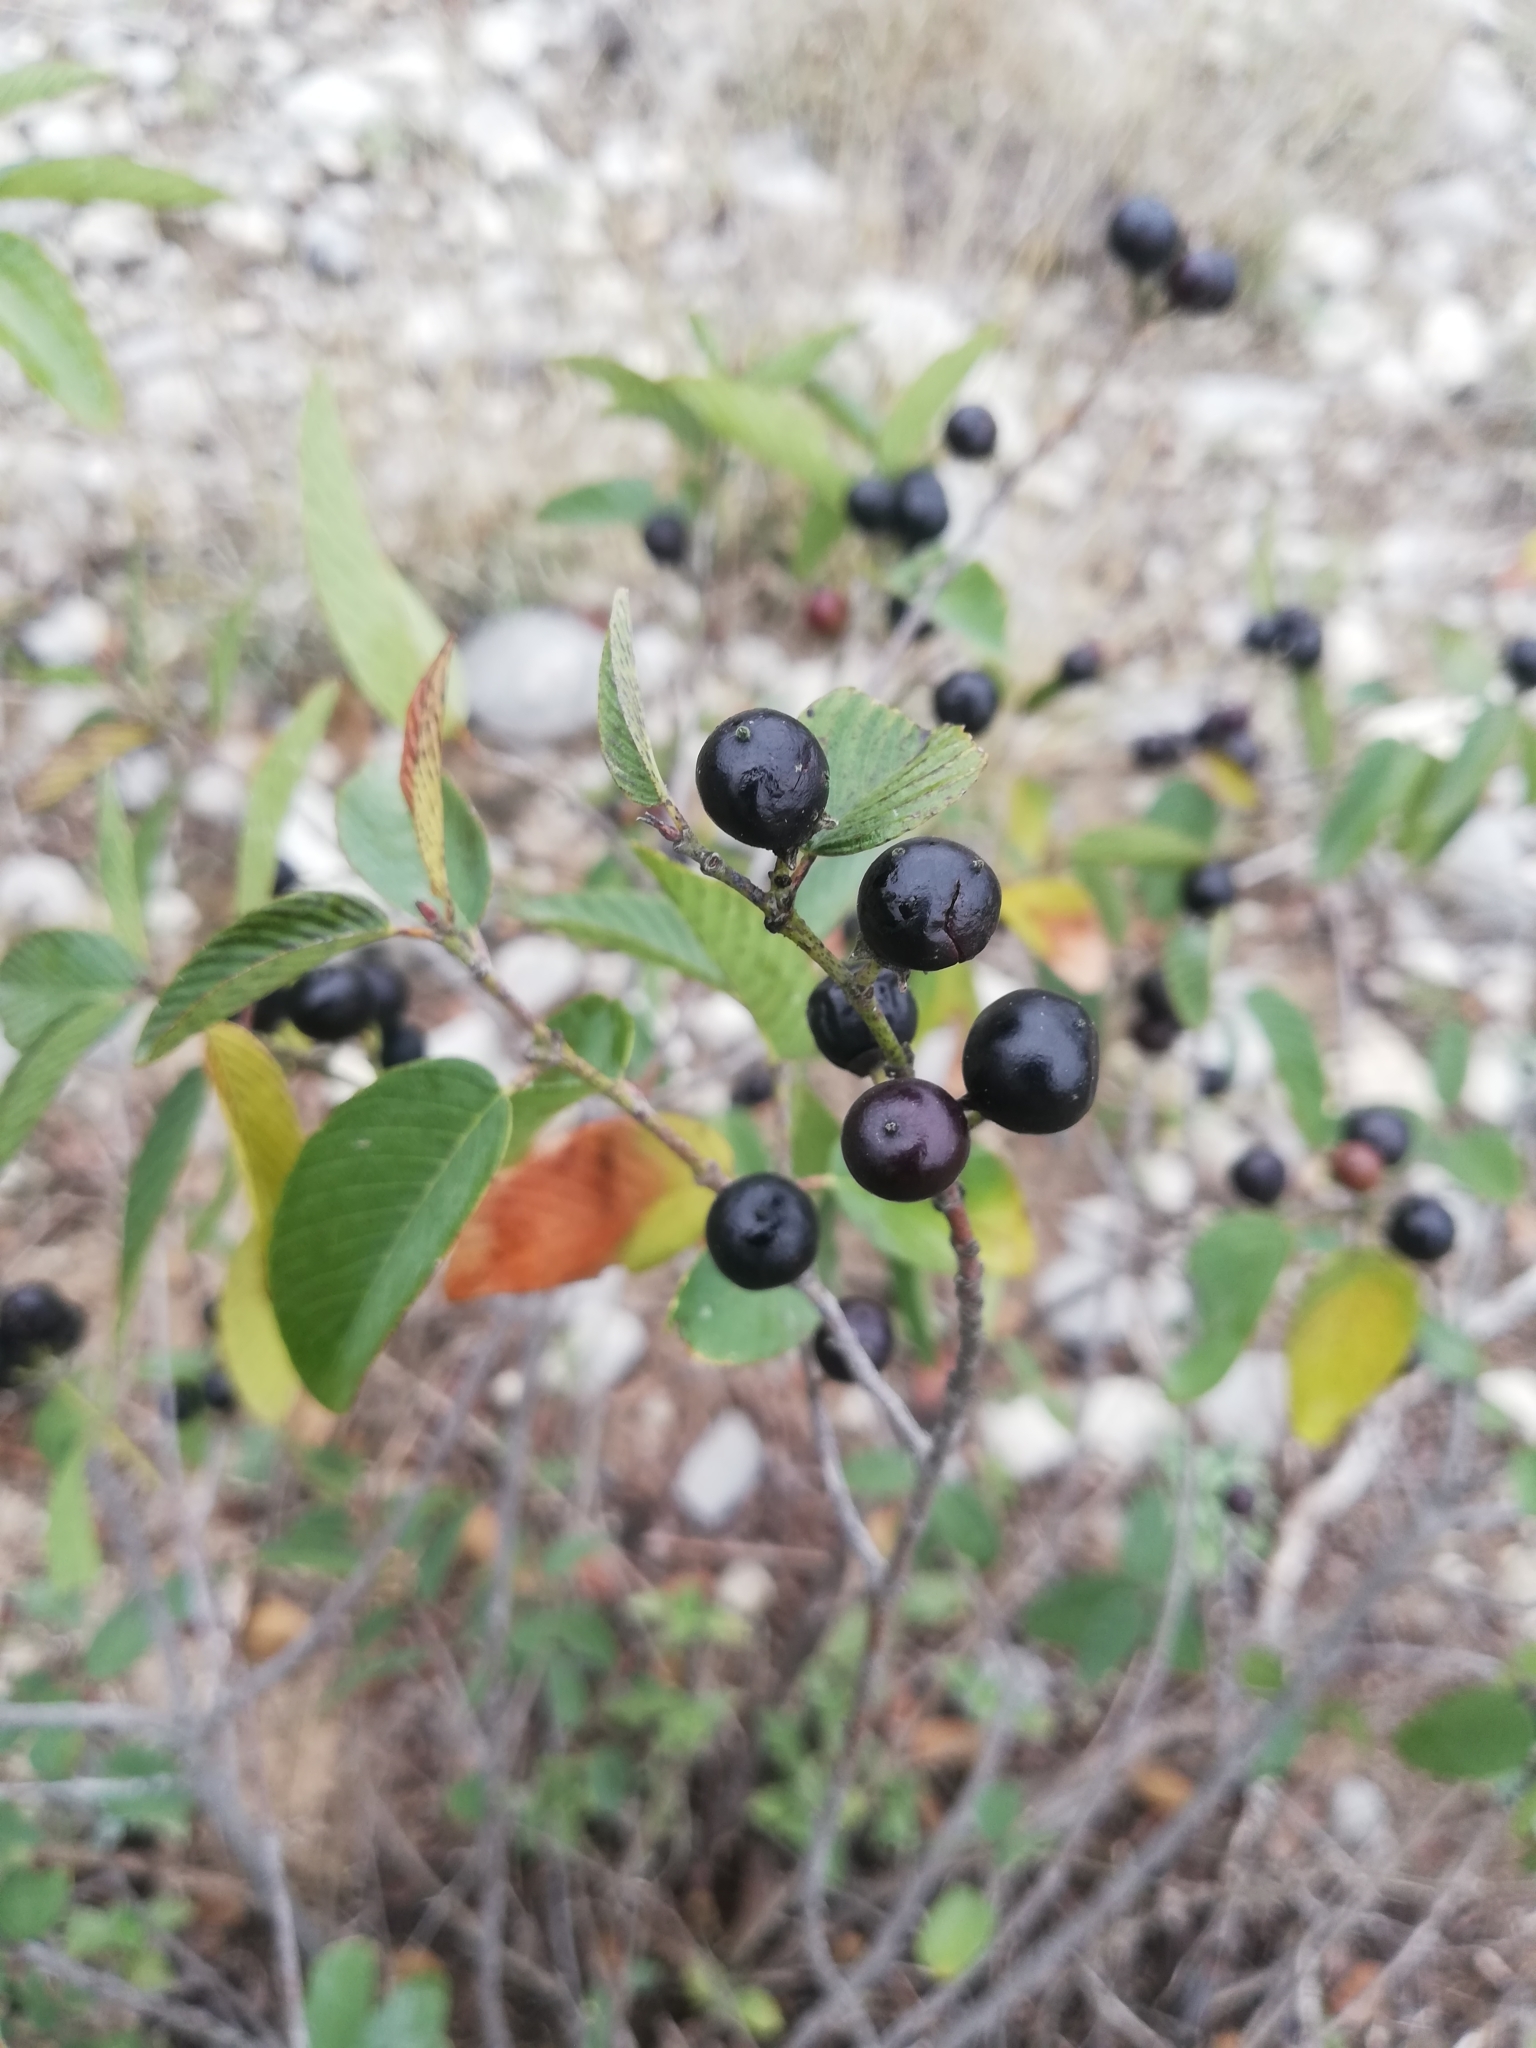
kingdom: Plantae
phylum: Tracheophyta
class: Magnoliopsida
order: Rosales
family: Rhamnaceae
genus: Karwinskia
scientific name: Karwinskia humboldtiana
